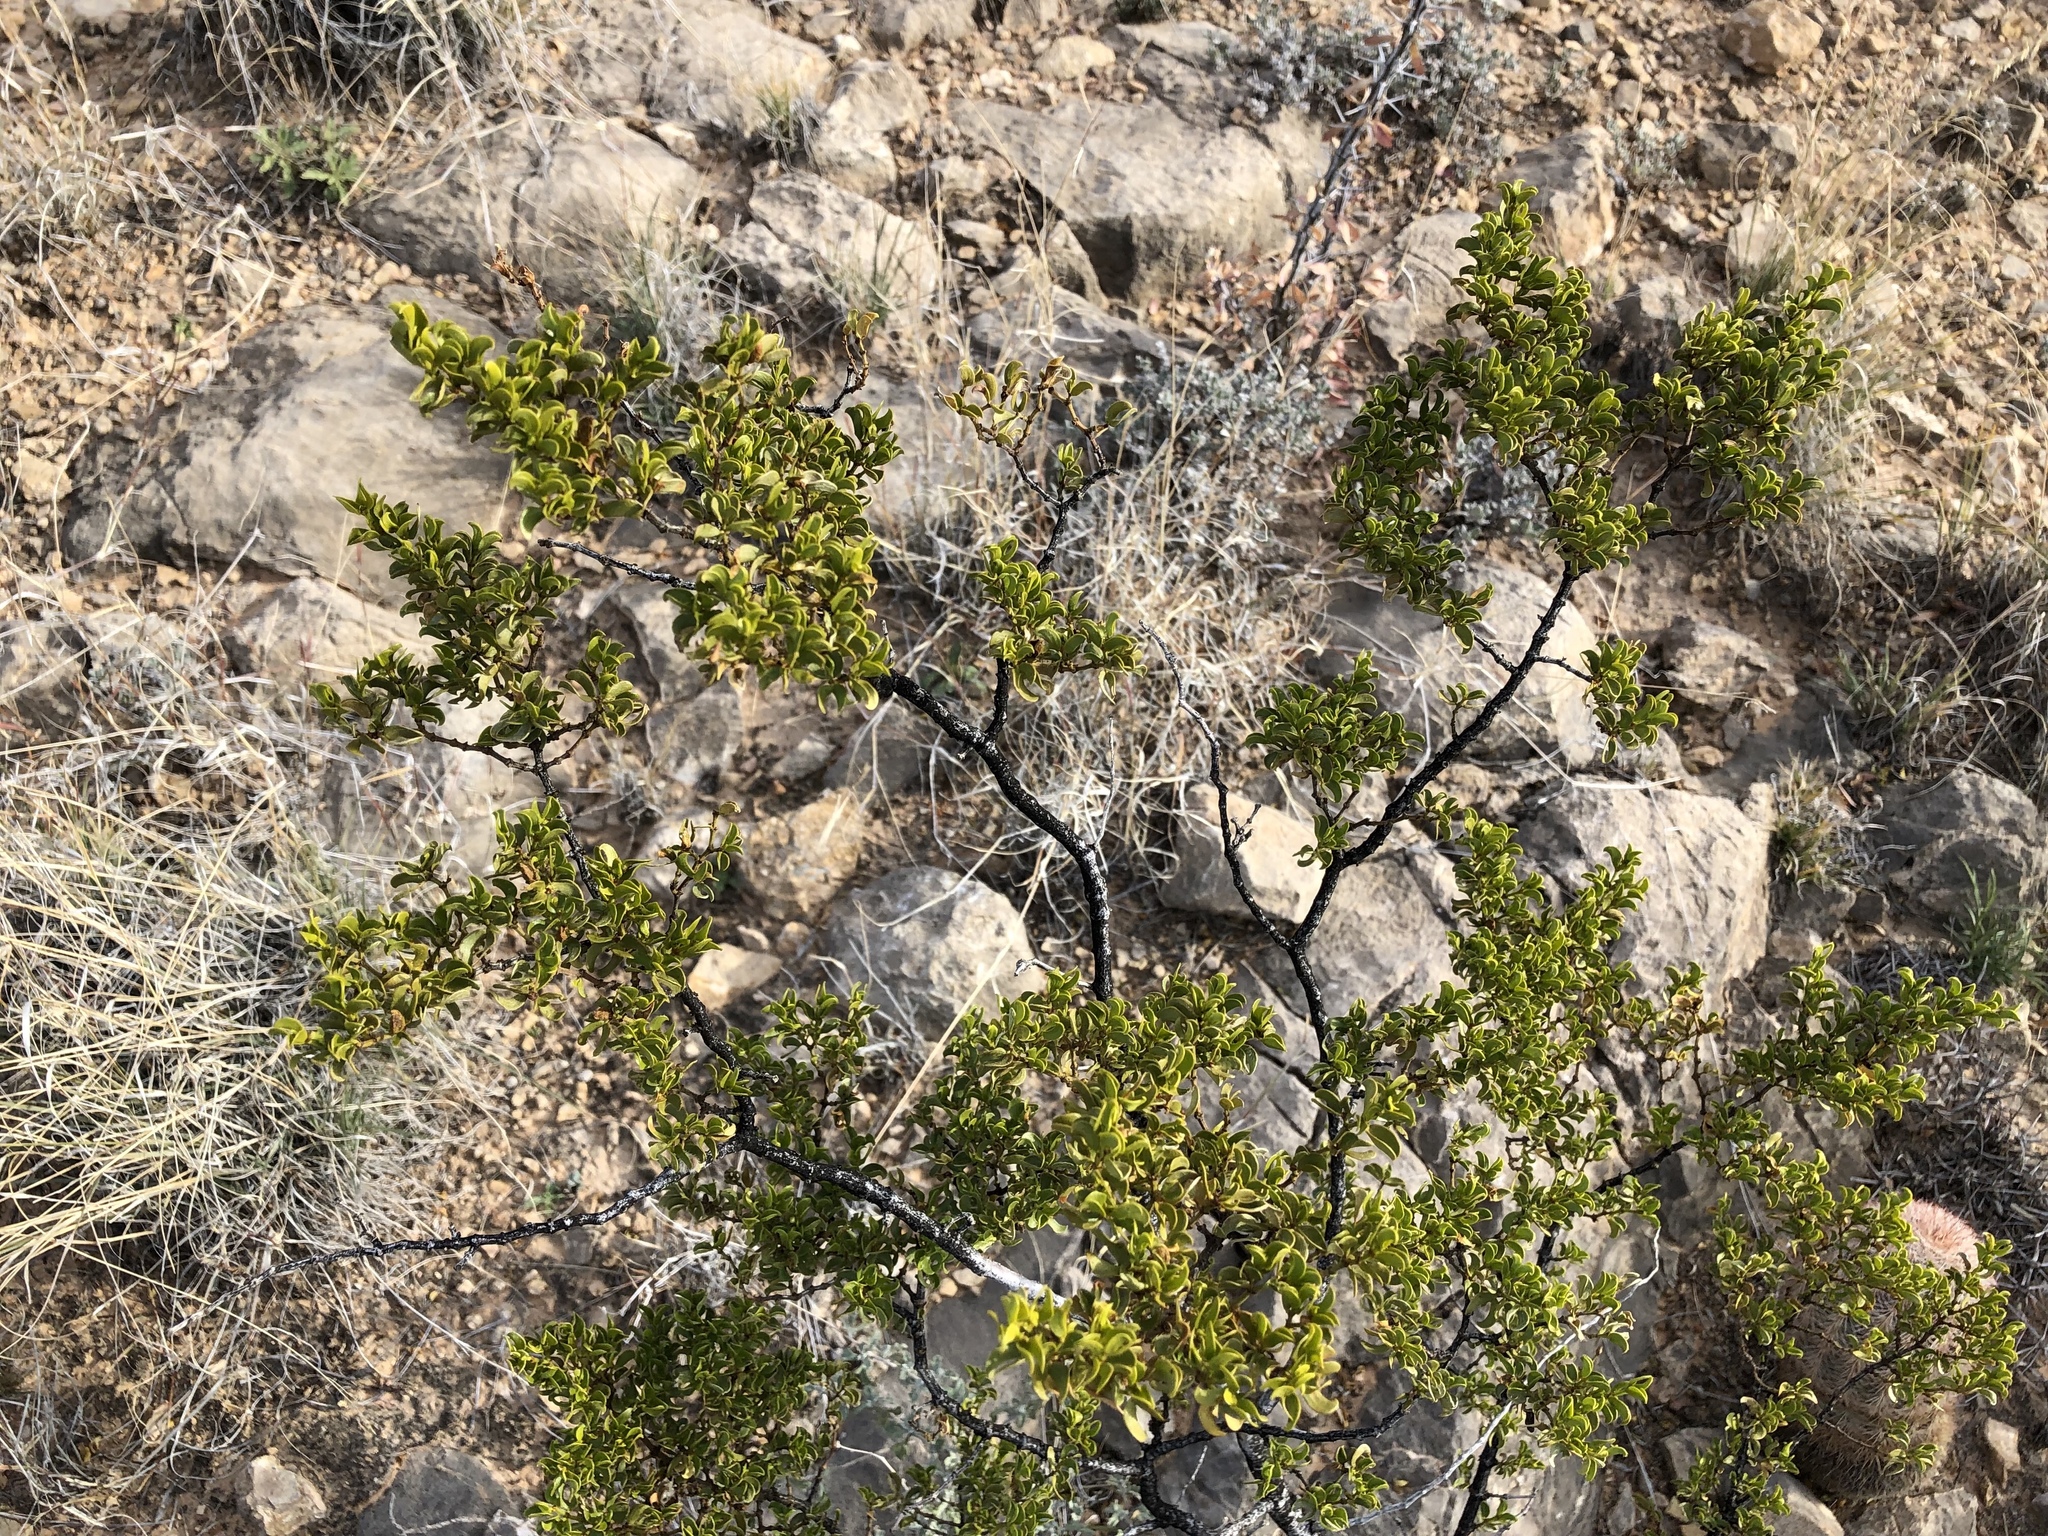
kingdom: Plantae
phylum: Tracheophyta
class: Magnoliopsida
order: Zygophyllales
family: Zygophyllaceae
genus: Larrea
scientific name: Larrea tridentata
